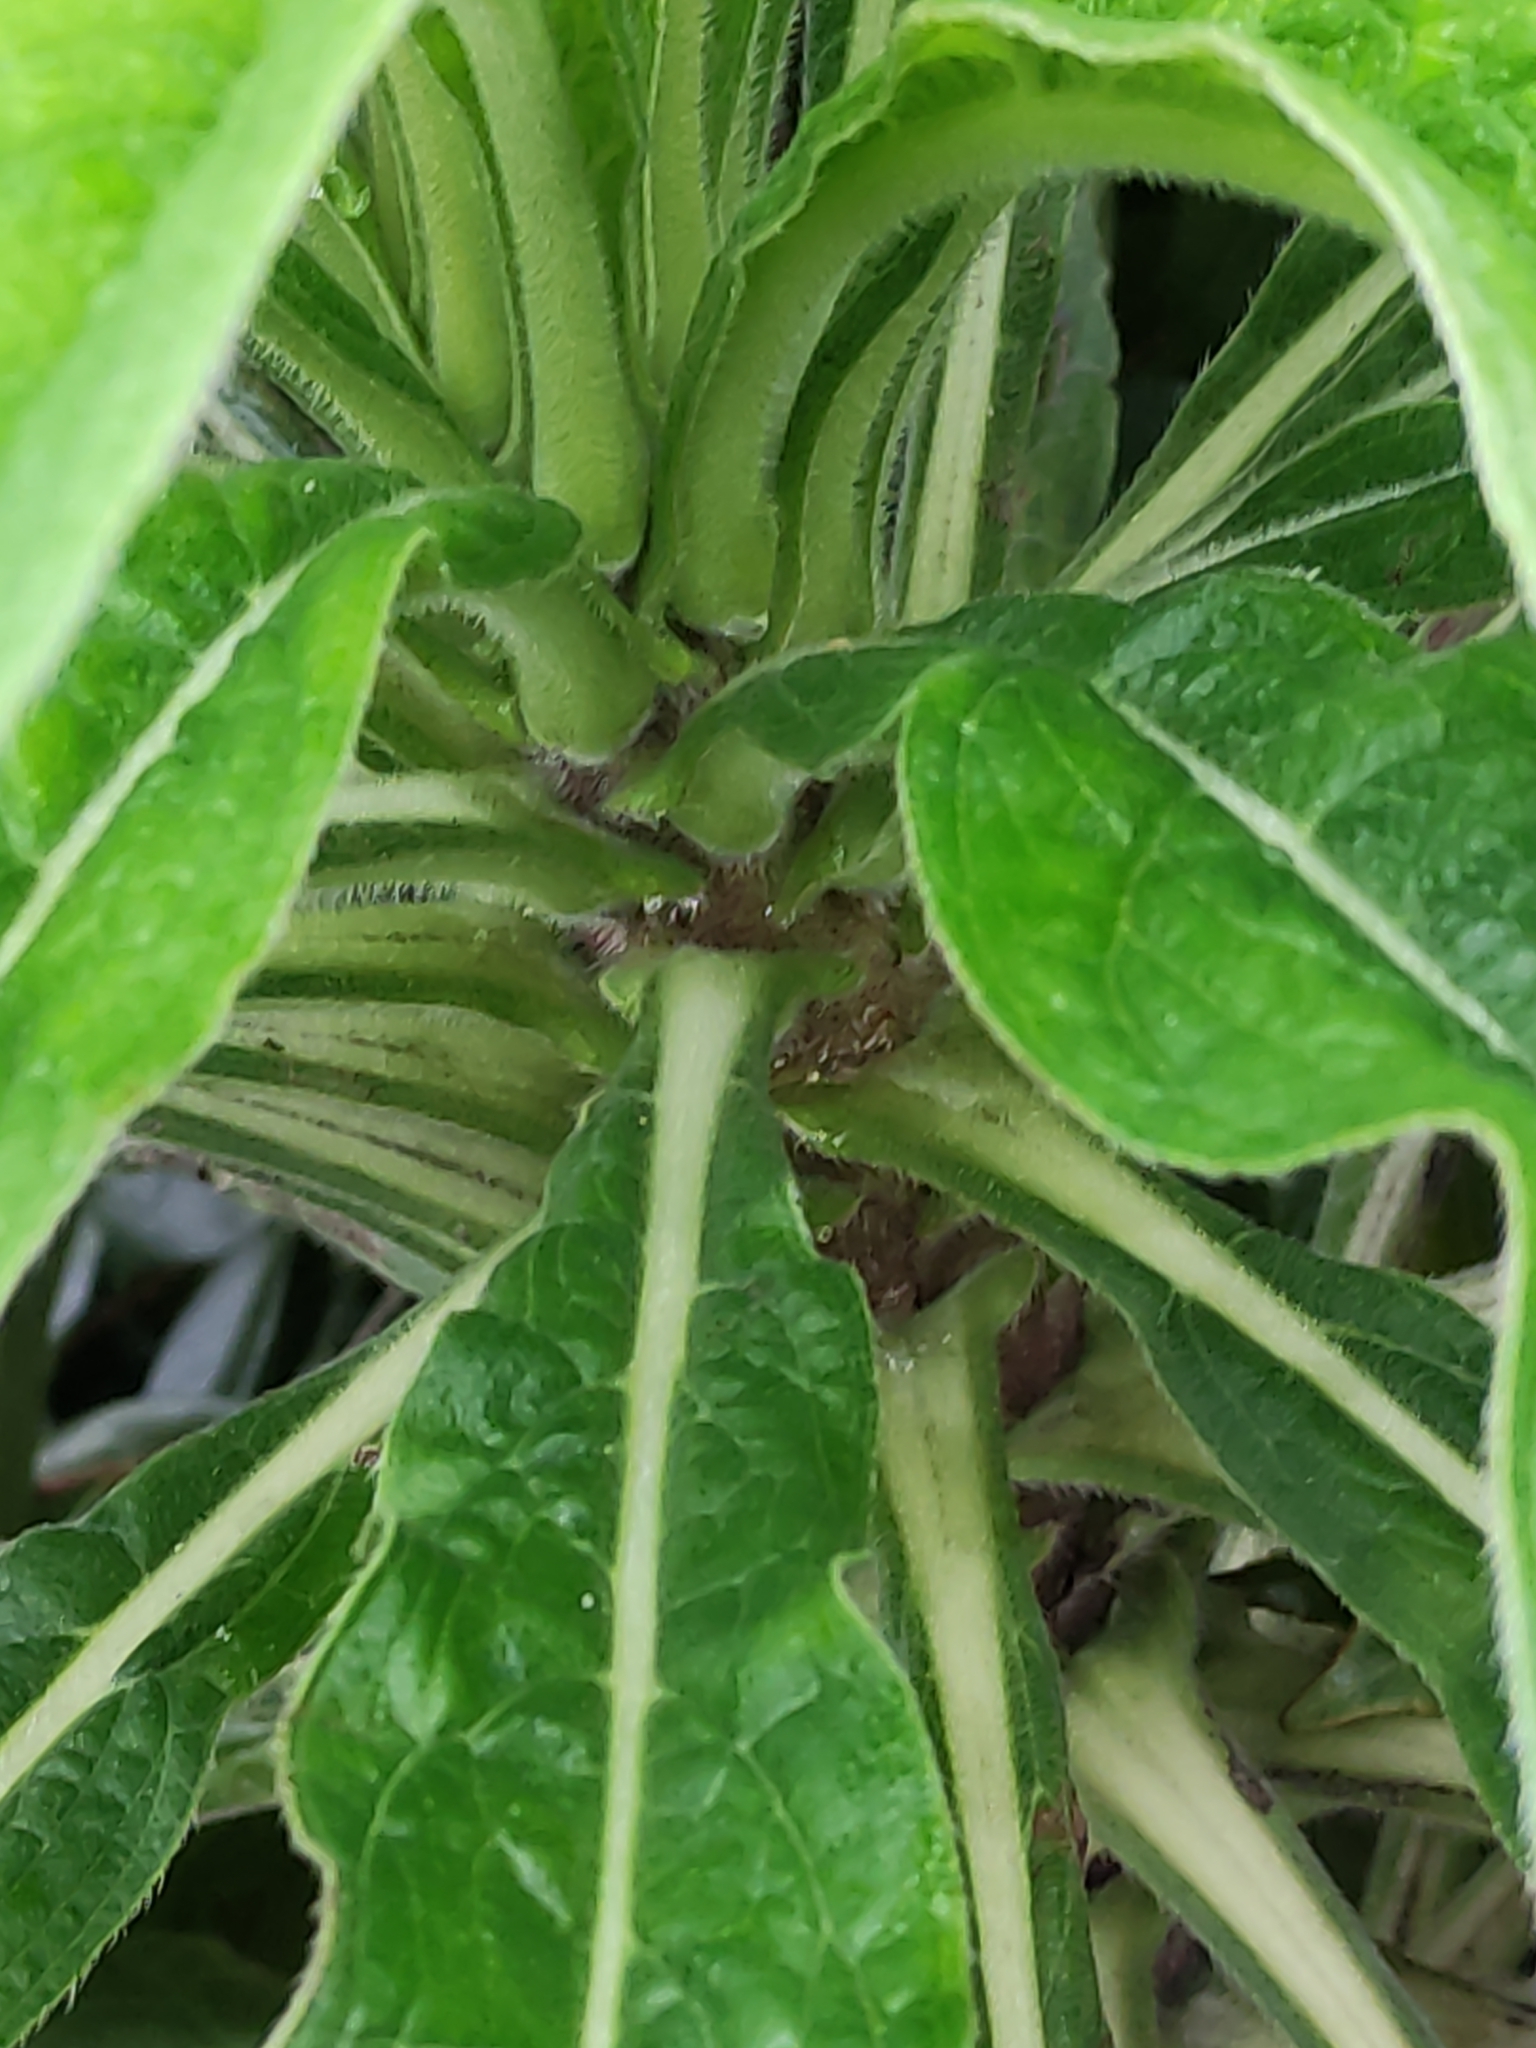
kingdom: Plantae
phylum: Tracheophyta
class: Magnoliopsida
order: Boraginales
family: Boraginaceae
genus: Echium
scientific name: Echium pininana
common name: Giant viper's-bugloss
